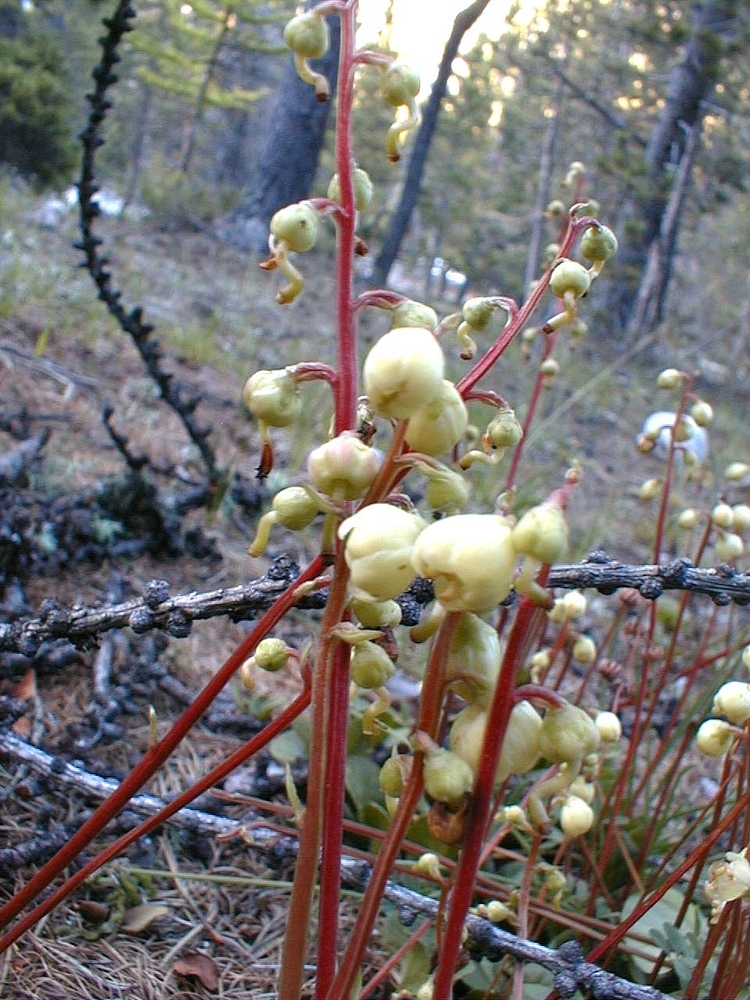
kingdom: Plantae
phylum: Tracheophyta
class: Magnoliopsida
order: Ericales
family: Ericaceae
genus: Pyrola
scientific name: Pyrola chlorantha
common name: Green wintergreen
